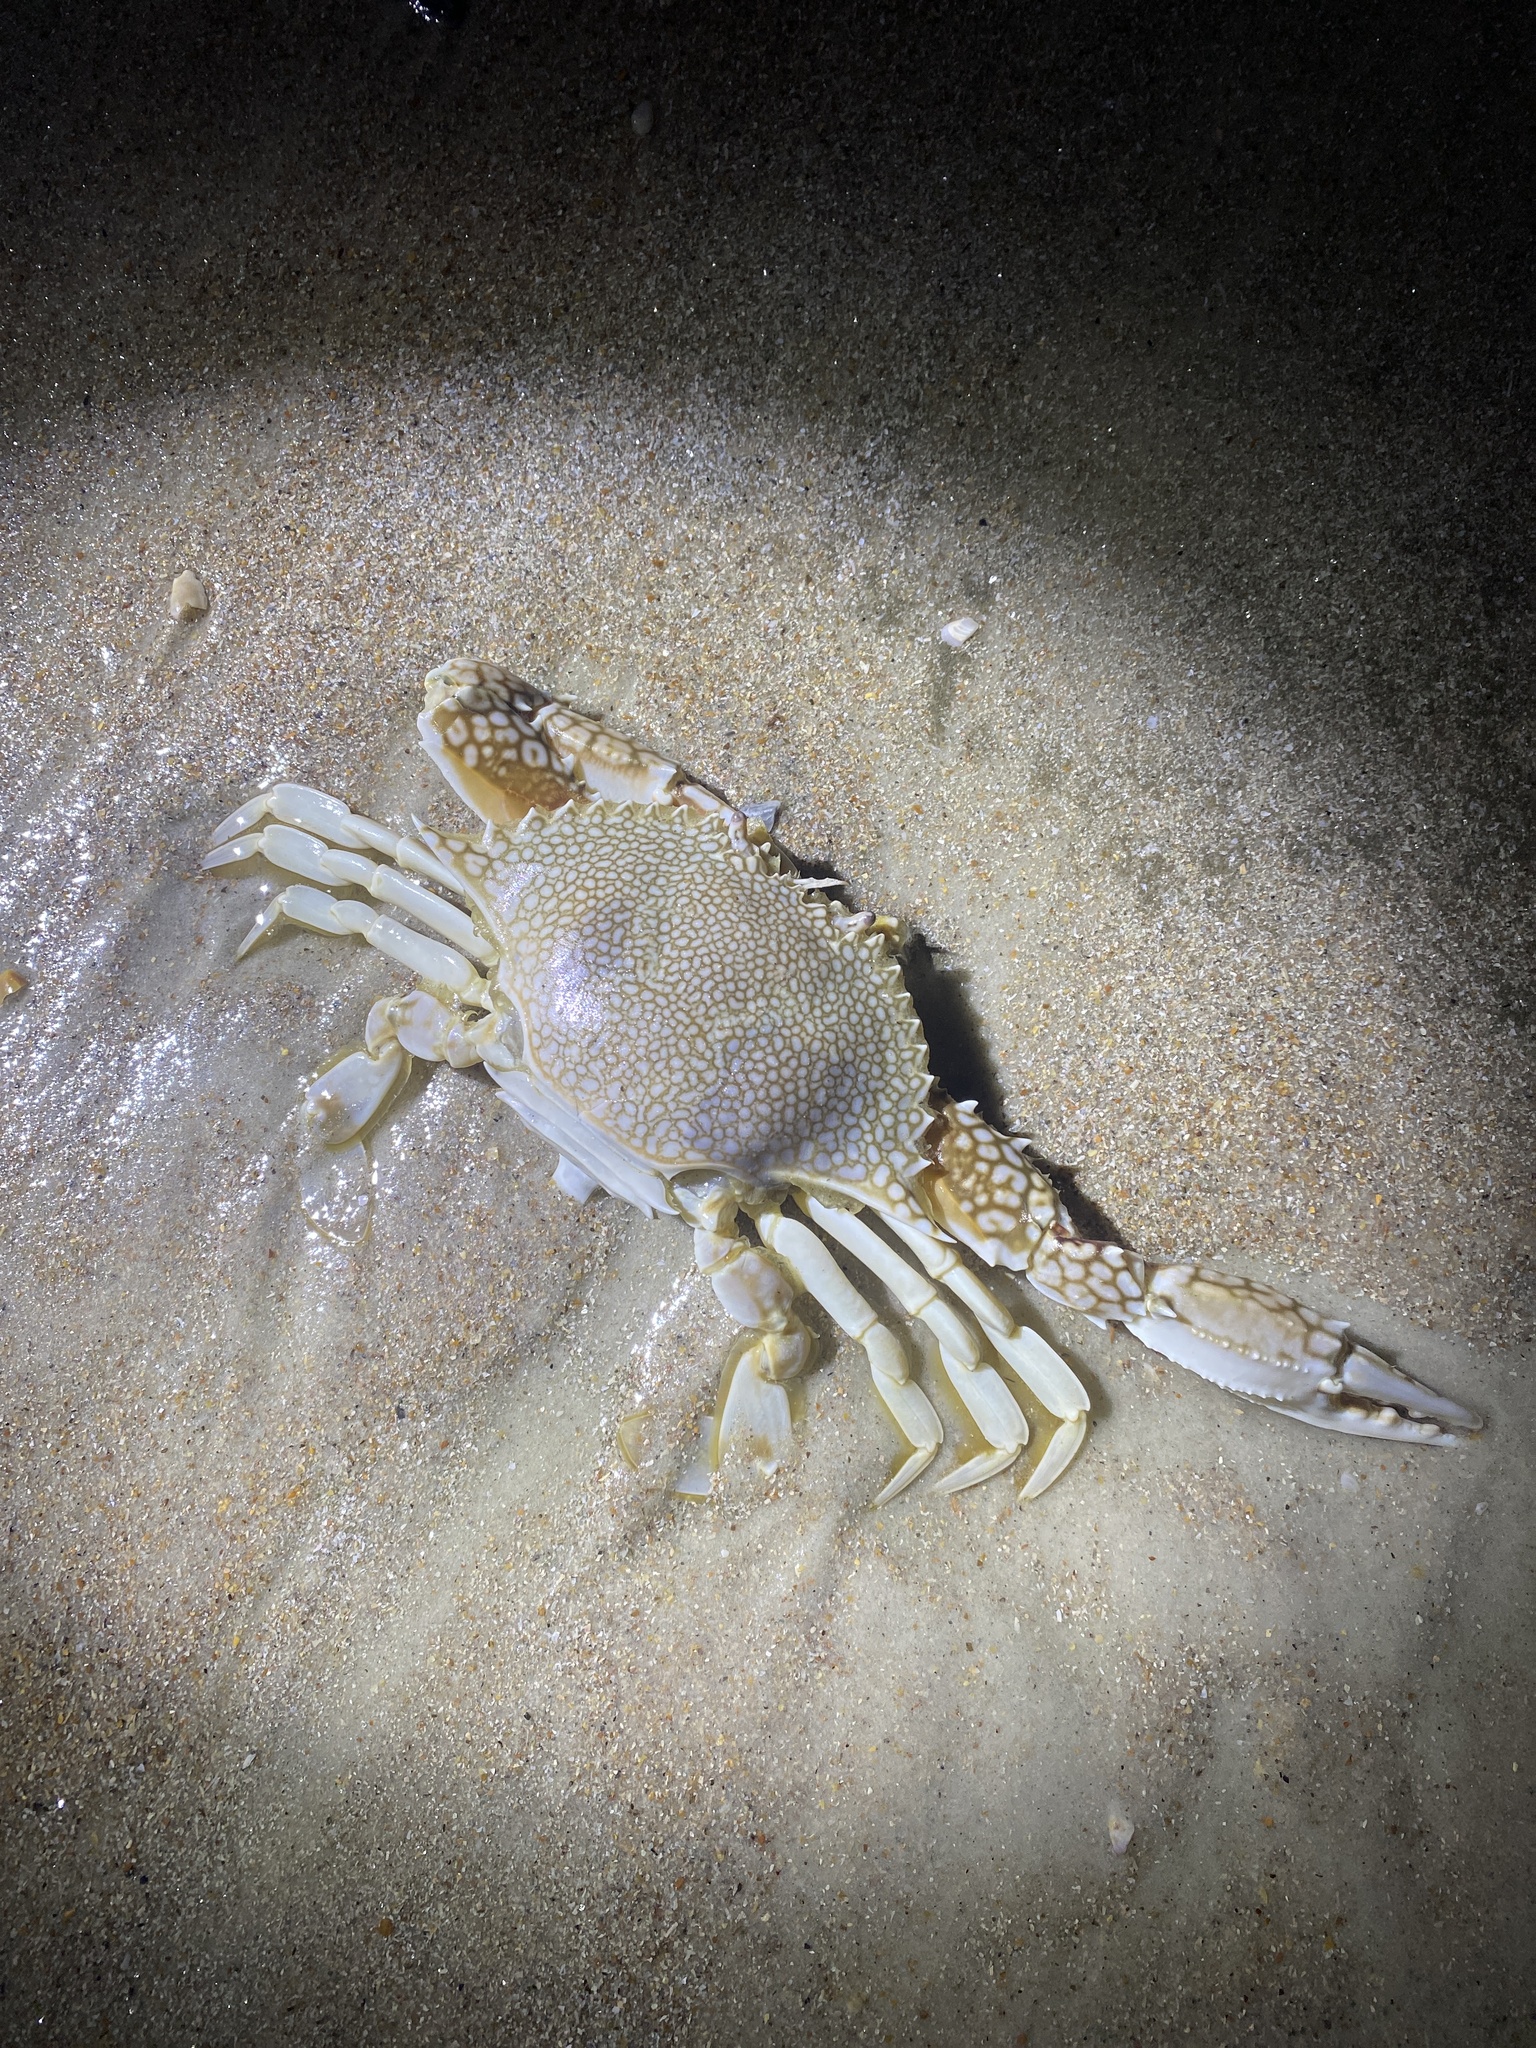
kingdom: Animalia
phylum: Arthropoda
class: Malacostraca
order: Decapoda
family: Portunidae
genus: Arenaeus
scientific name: Arenaeus cribrarius
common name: Speckled crab
